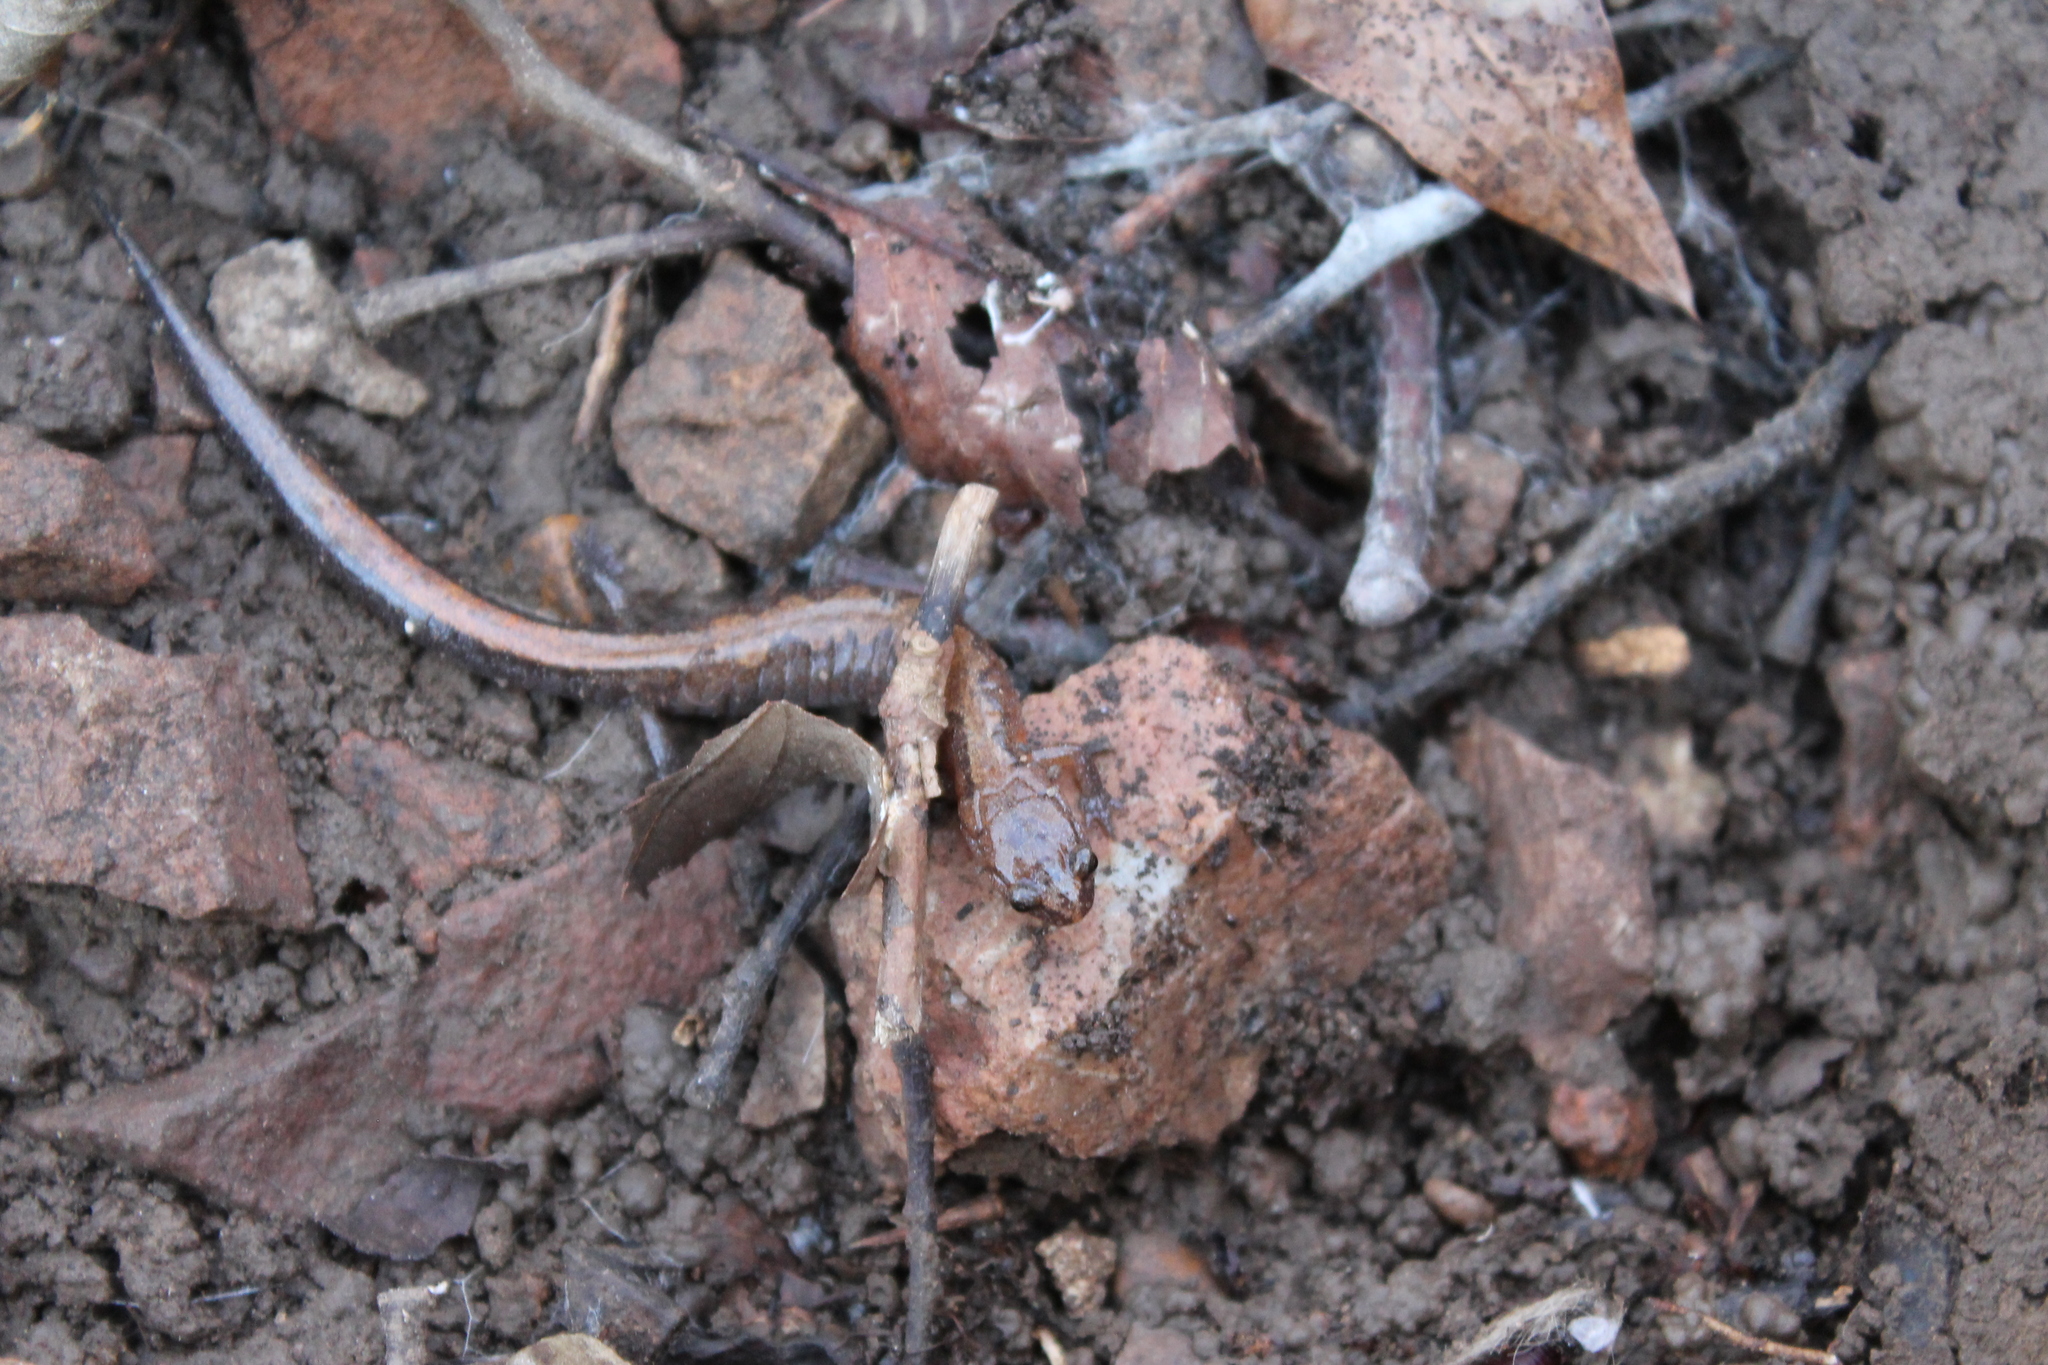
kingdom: Animalia
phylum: Chordata
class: Amphibia
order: Caudata
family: Plethodontidae
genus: Plethodon
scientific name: Plethodon dorsalis
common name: Northern zigzag salamander
